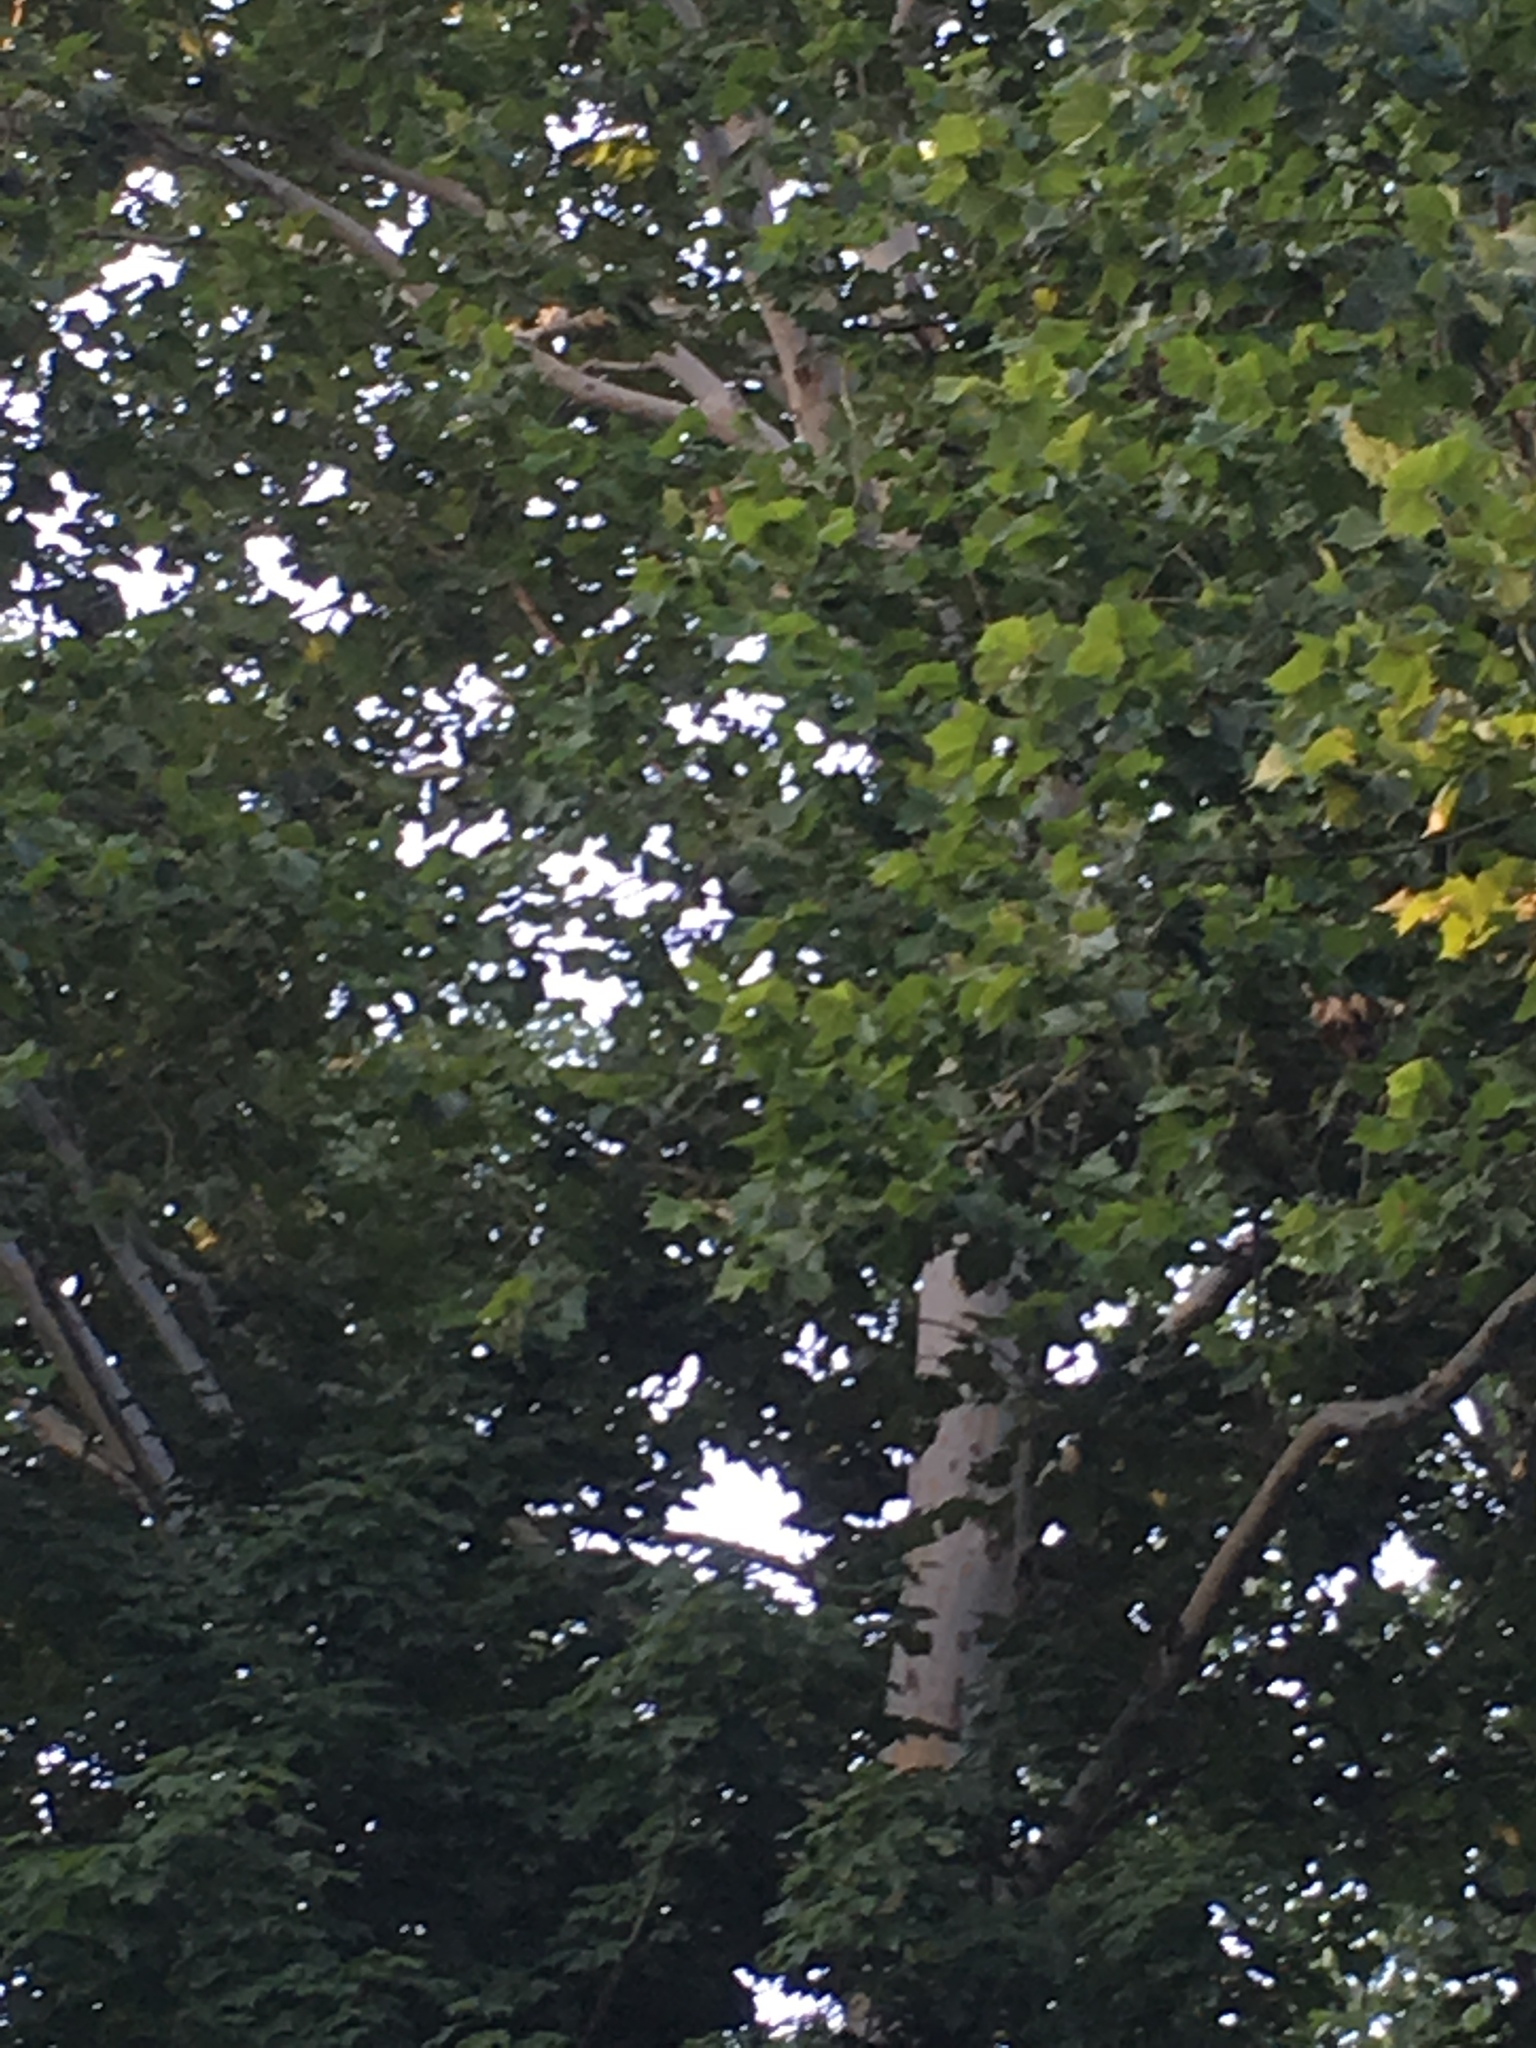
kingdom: Plantae
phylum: Tracheophyta
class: Magnoliopsida
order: Proteales
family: Platanaceae
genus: Platanus
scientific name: Platanus occidentalis
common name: American sycamore
